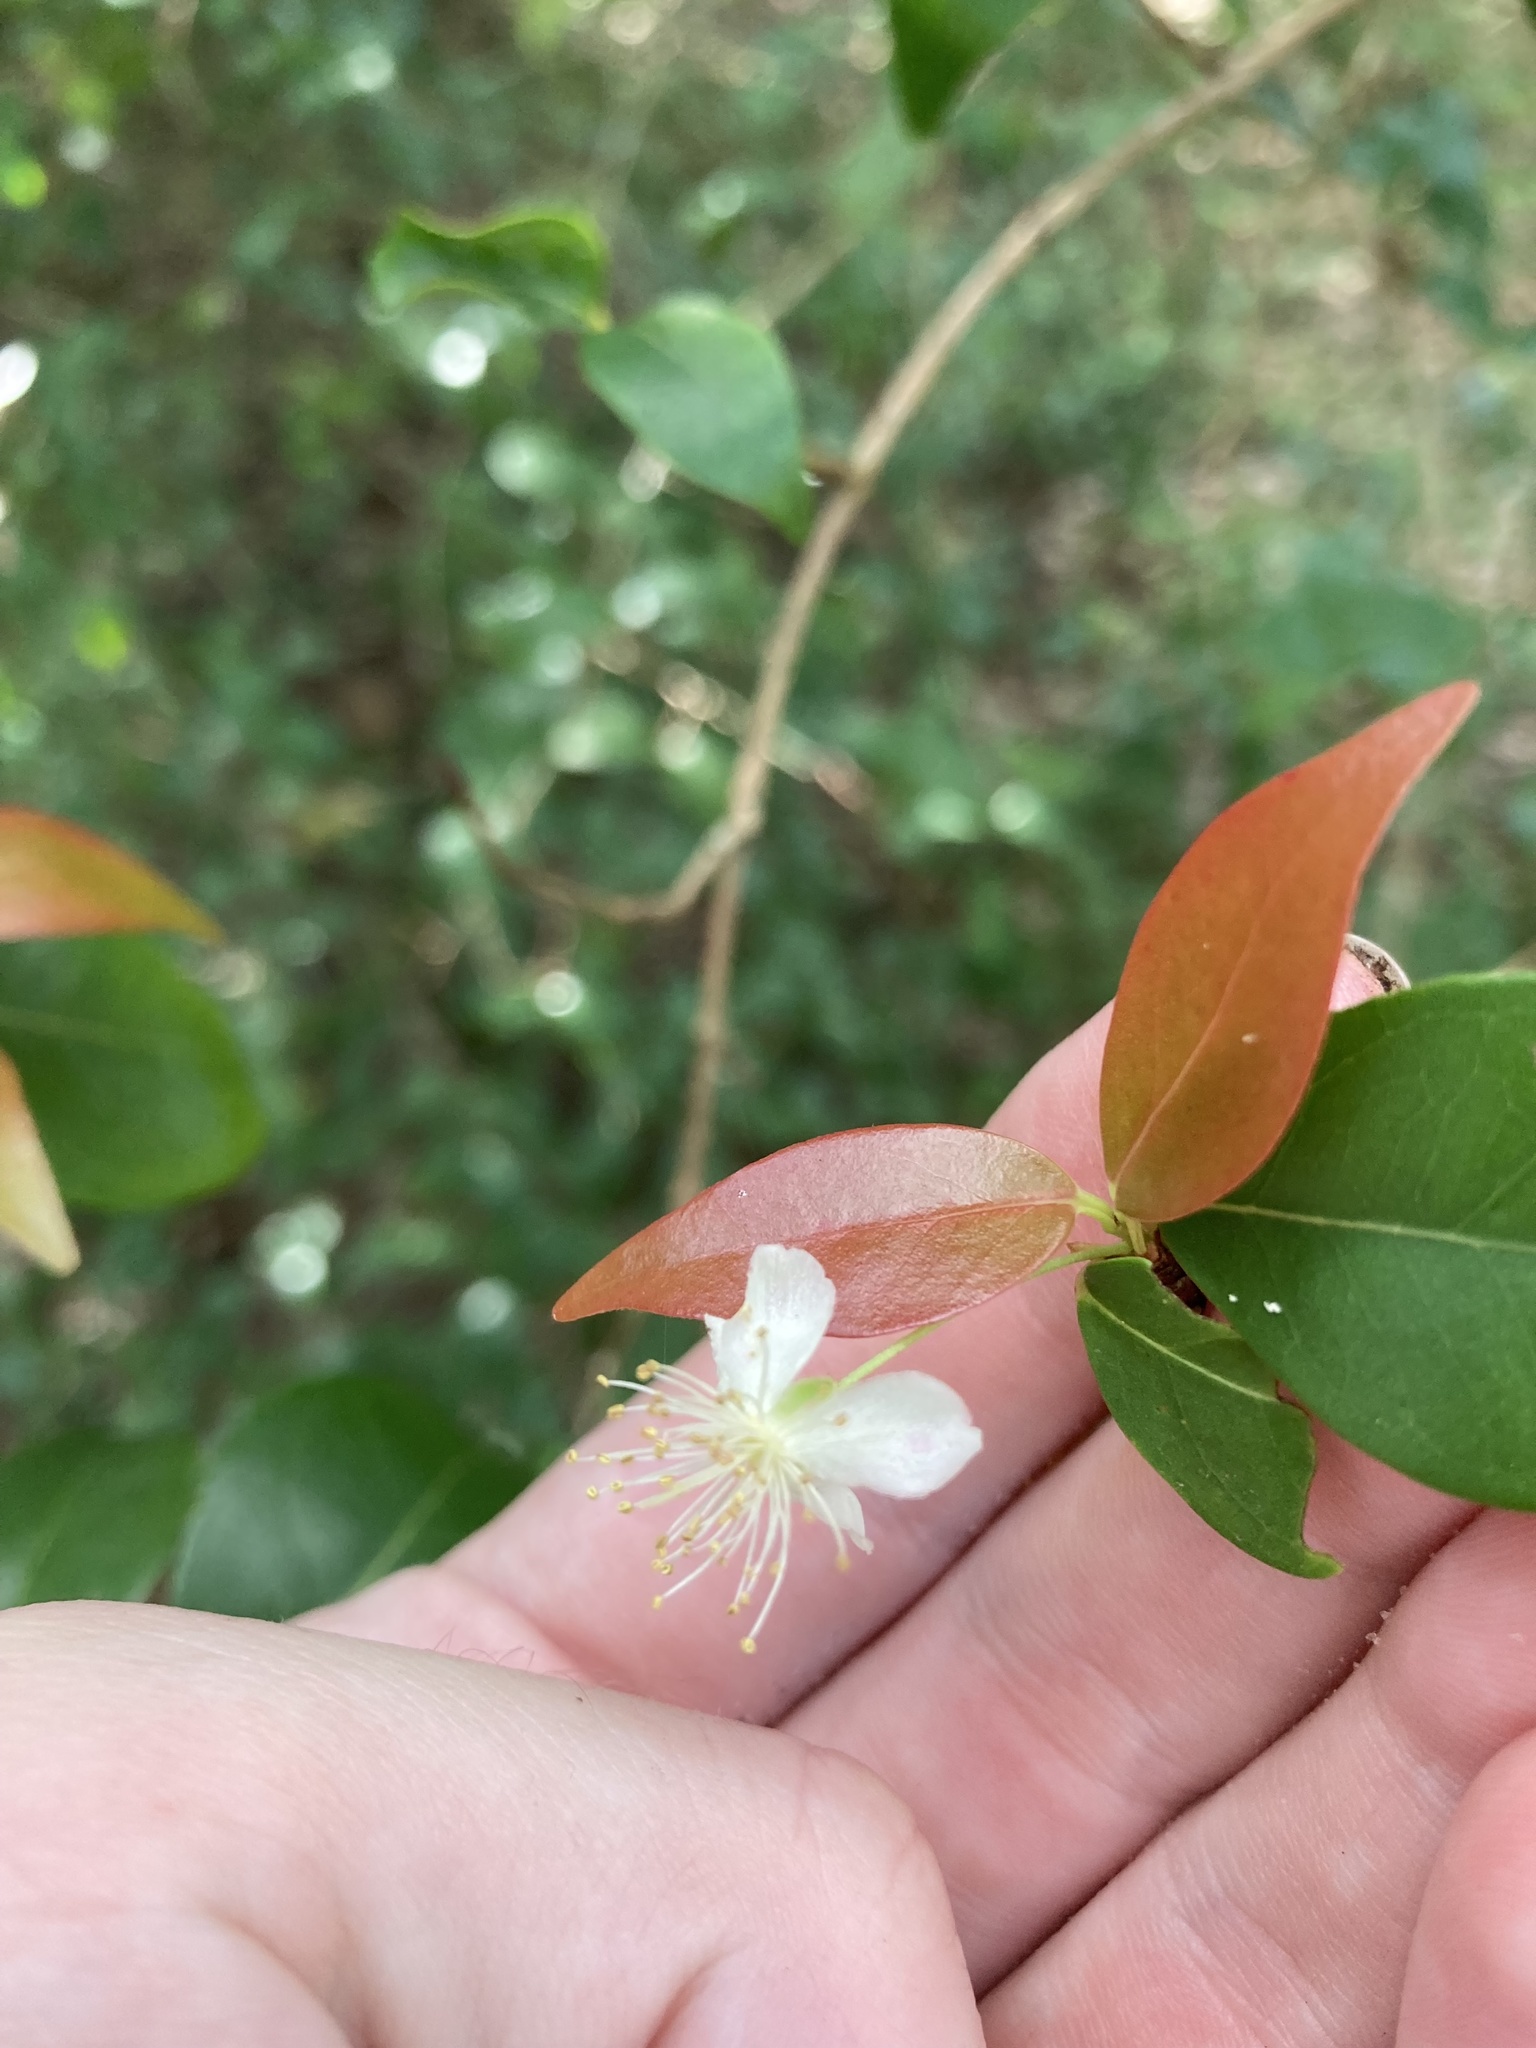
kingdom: Plantae
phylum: Tracheophyta
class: Magnoliopsida
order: Myrtales
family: Myrtaceae
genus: Eugenia
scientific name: Eugenia uniflora
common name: Surinam cherry
